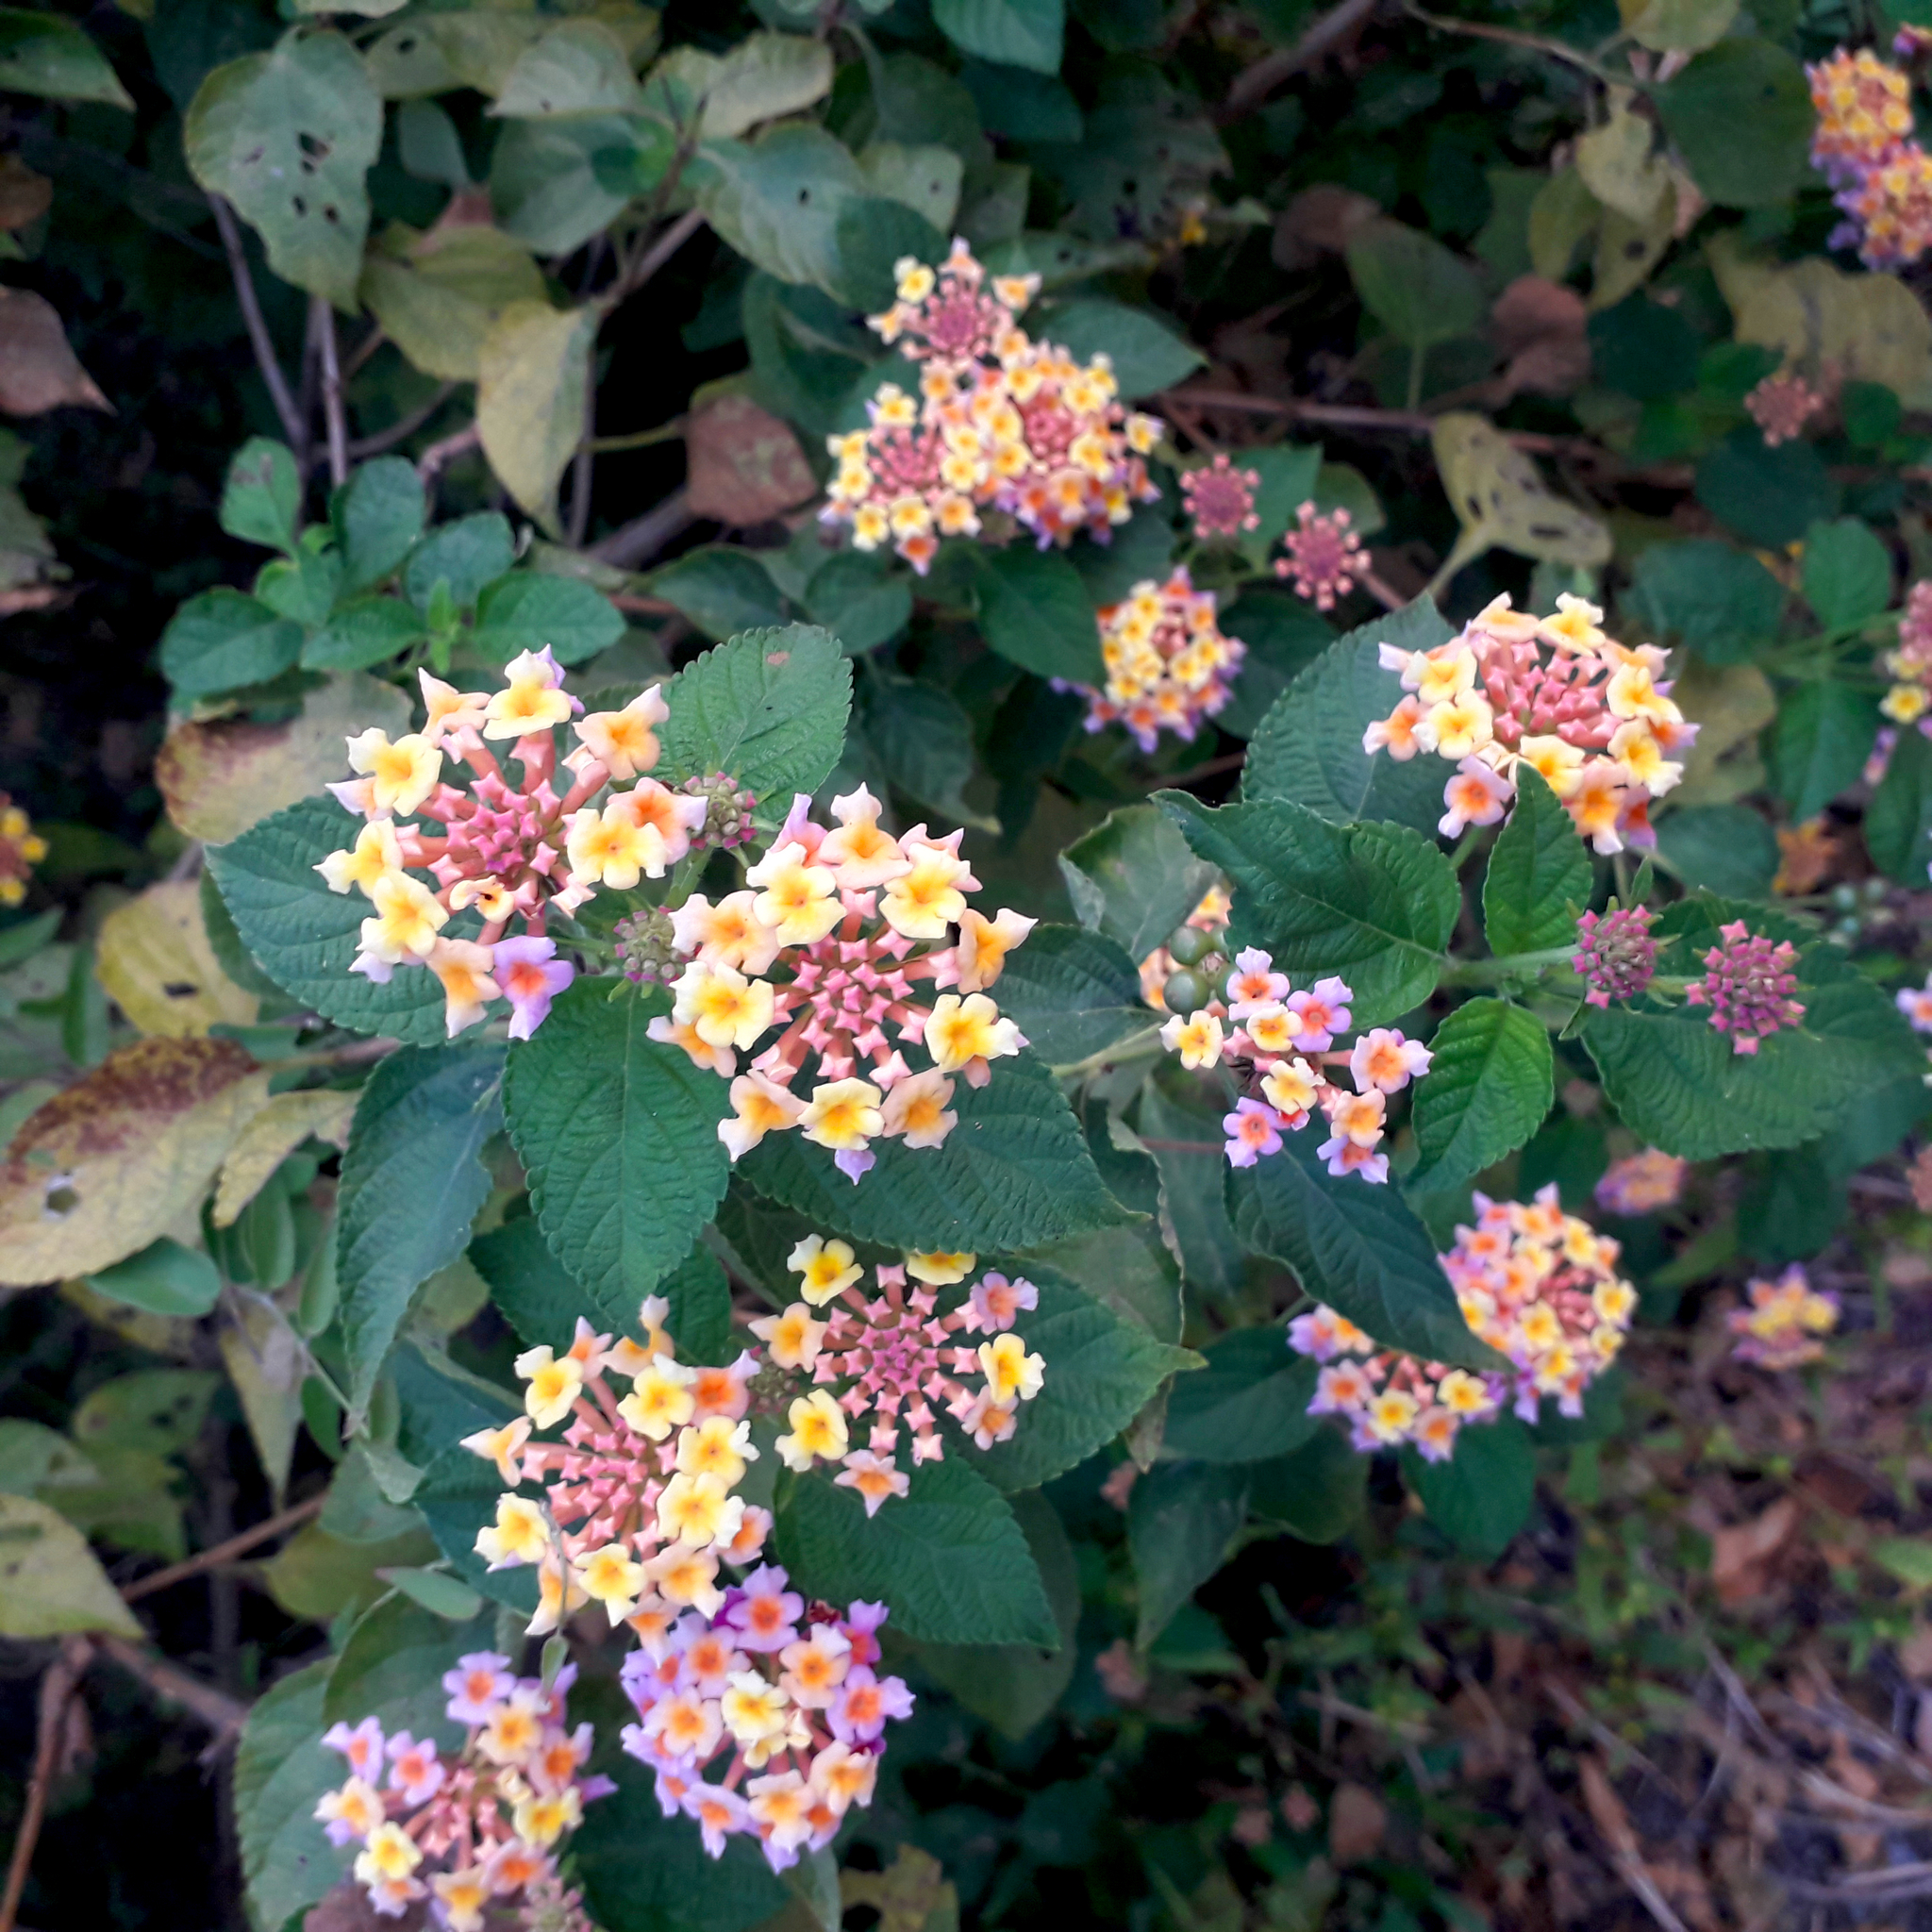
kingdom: Plantae
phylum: Tracheophyta
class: Magnoliopsida
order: Lamiales
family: Verbenaceae
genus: Lantana
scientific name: Lantana camara
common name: Lantana
